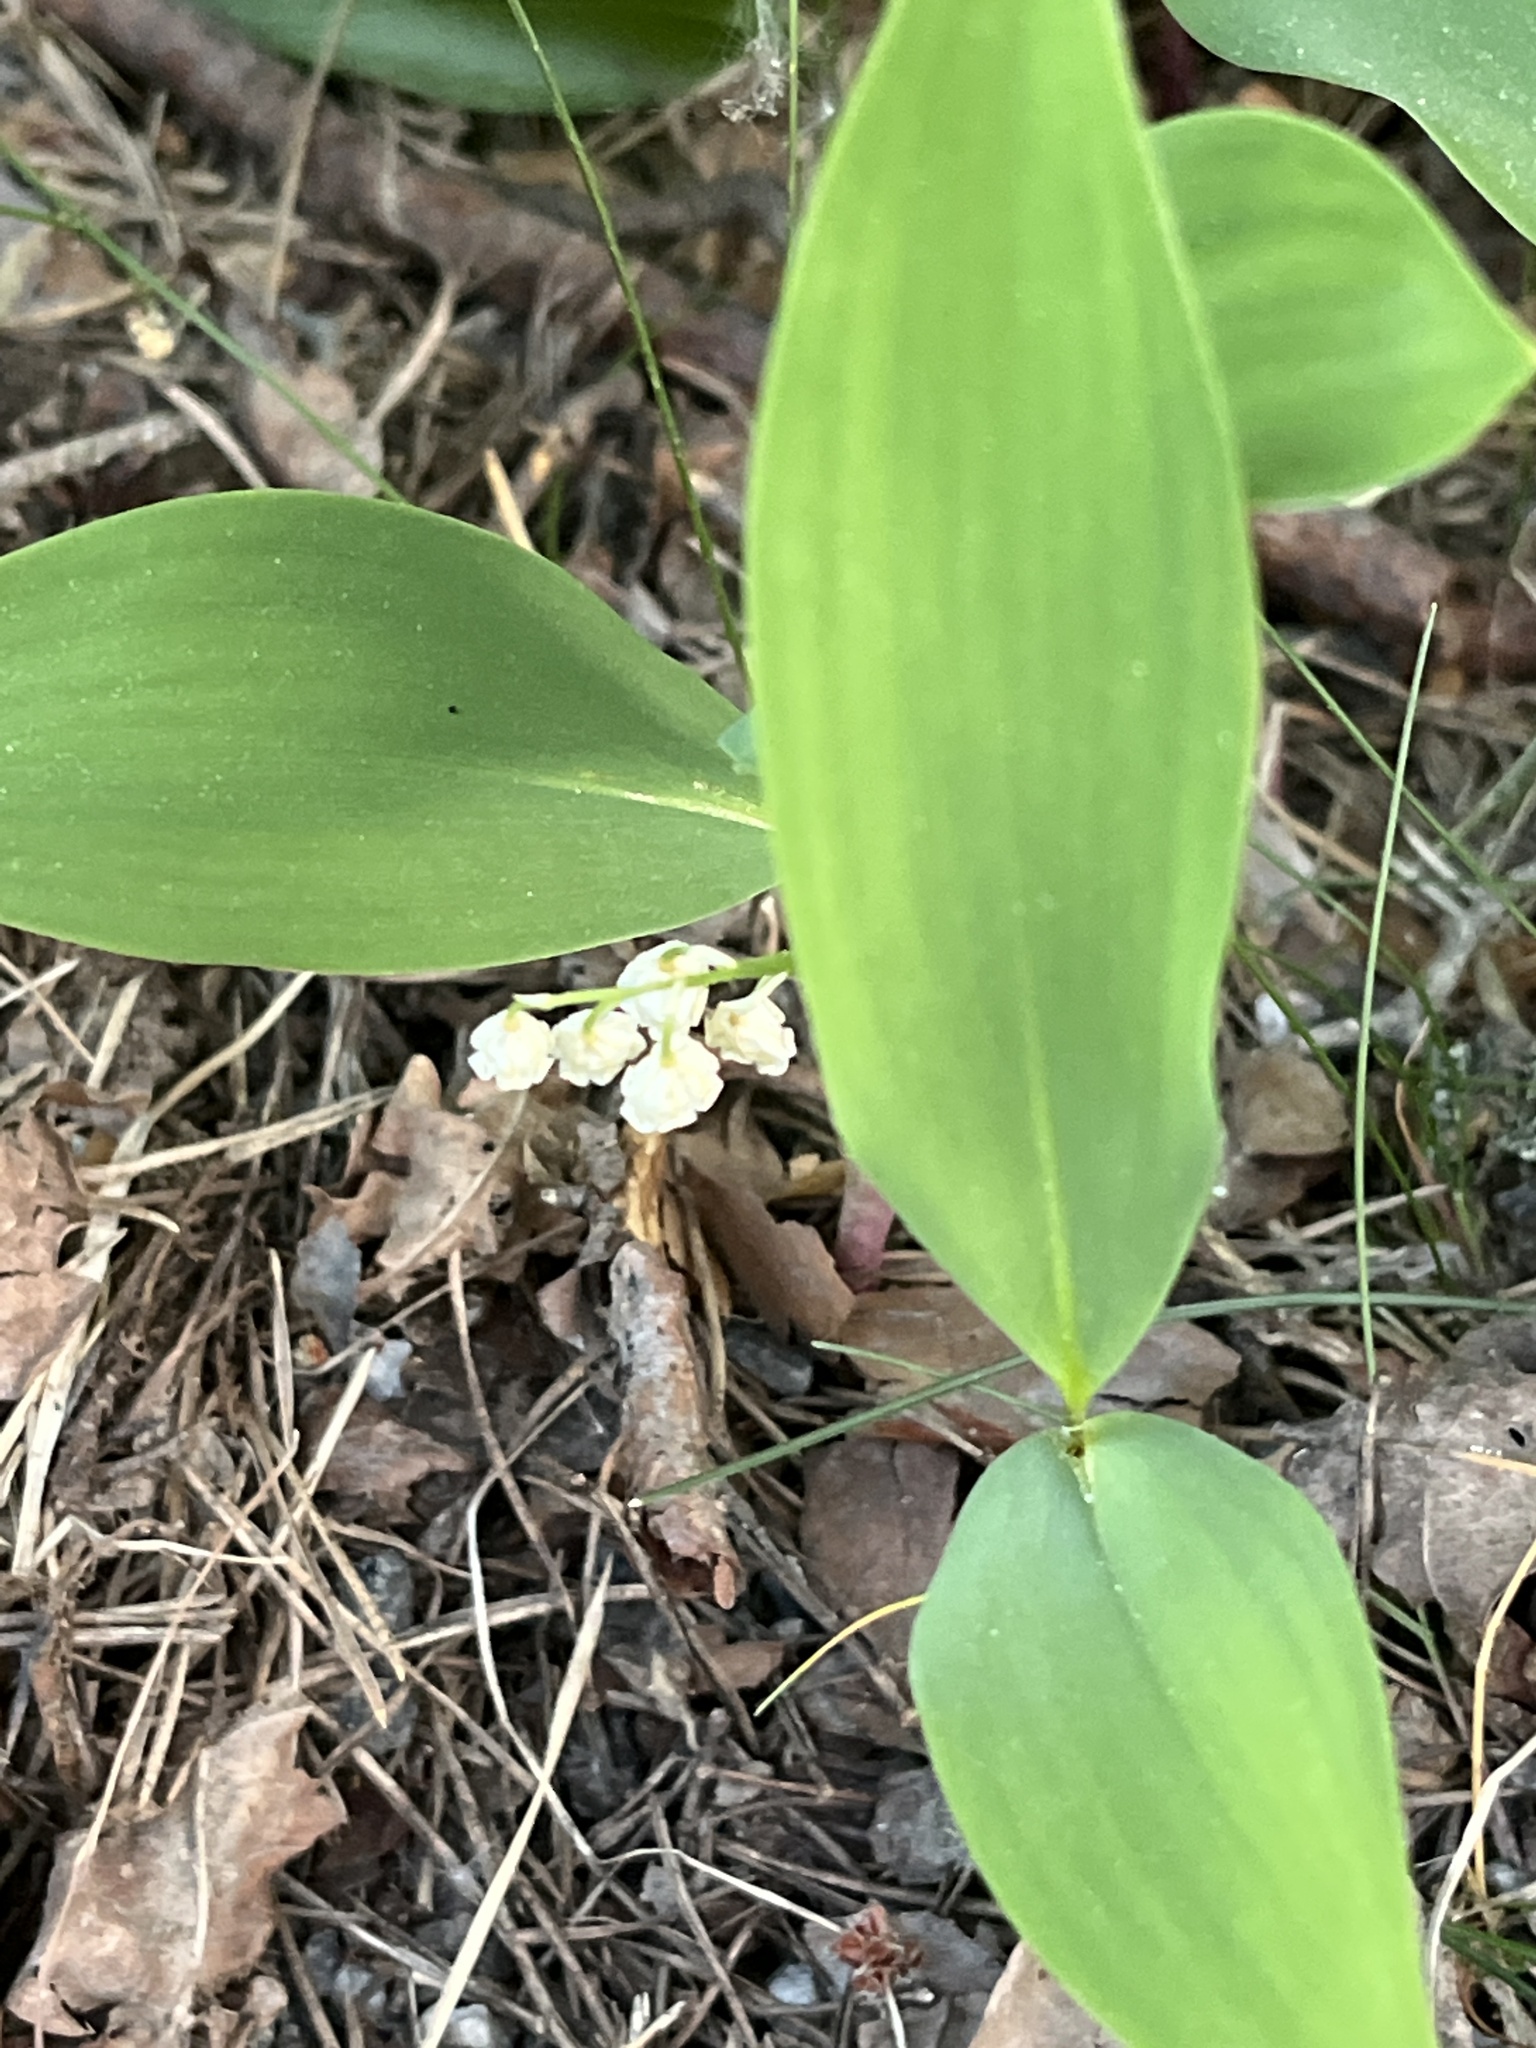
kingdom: Plantae
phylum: Tracheophyta
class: Liliopsida
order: Asparagales
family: Asparagaceae
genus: Convallaria
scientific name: Convallaria majalis
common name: Lily-of-the-valley
